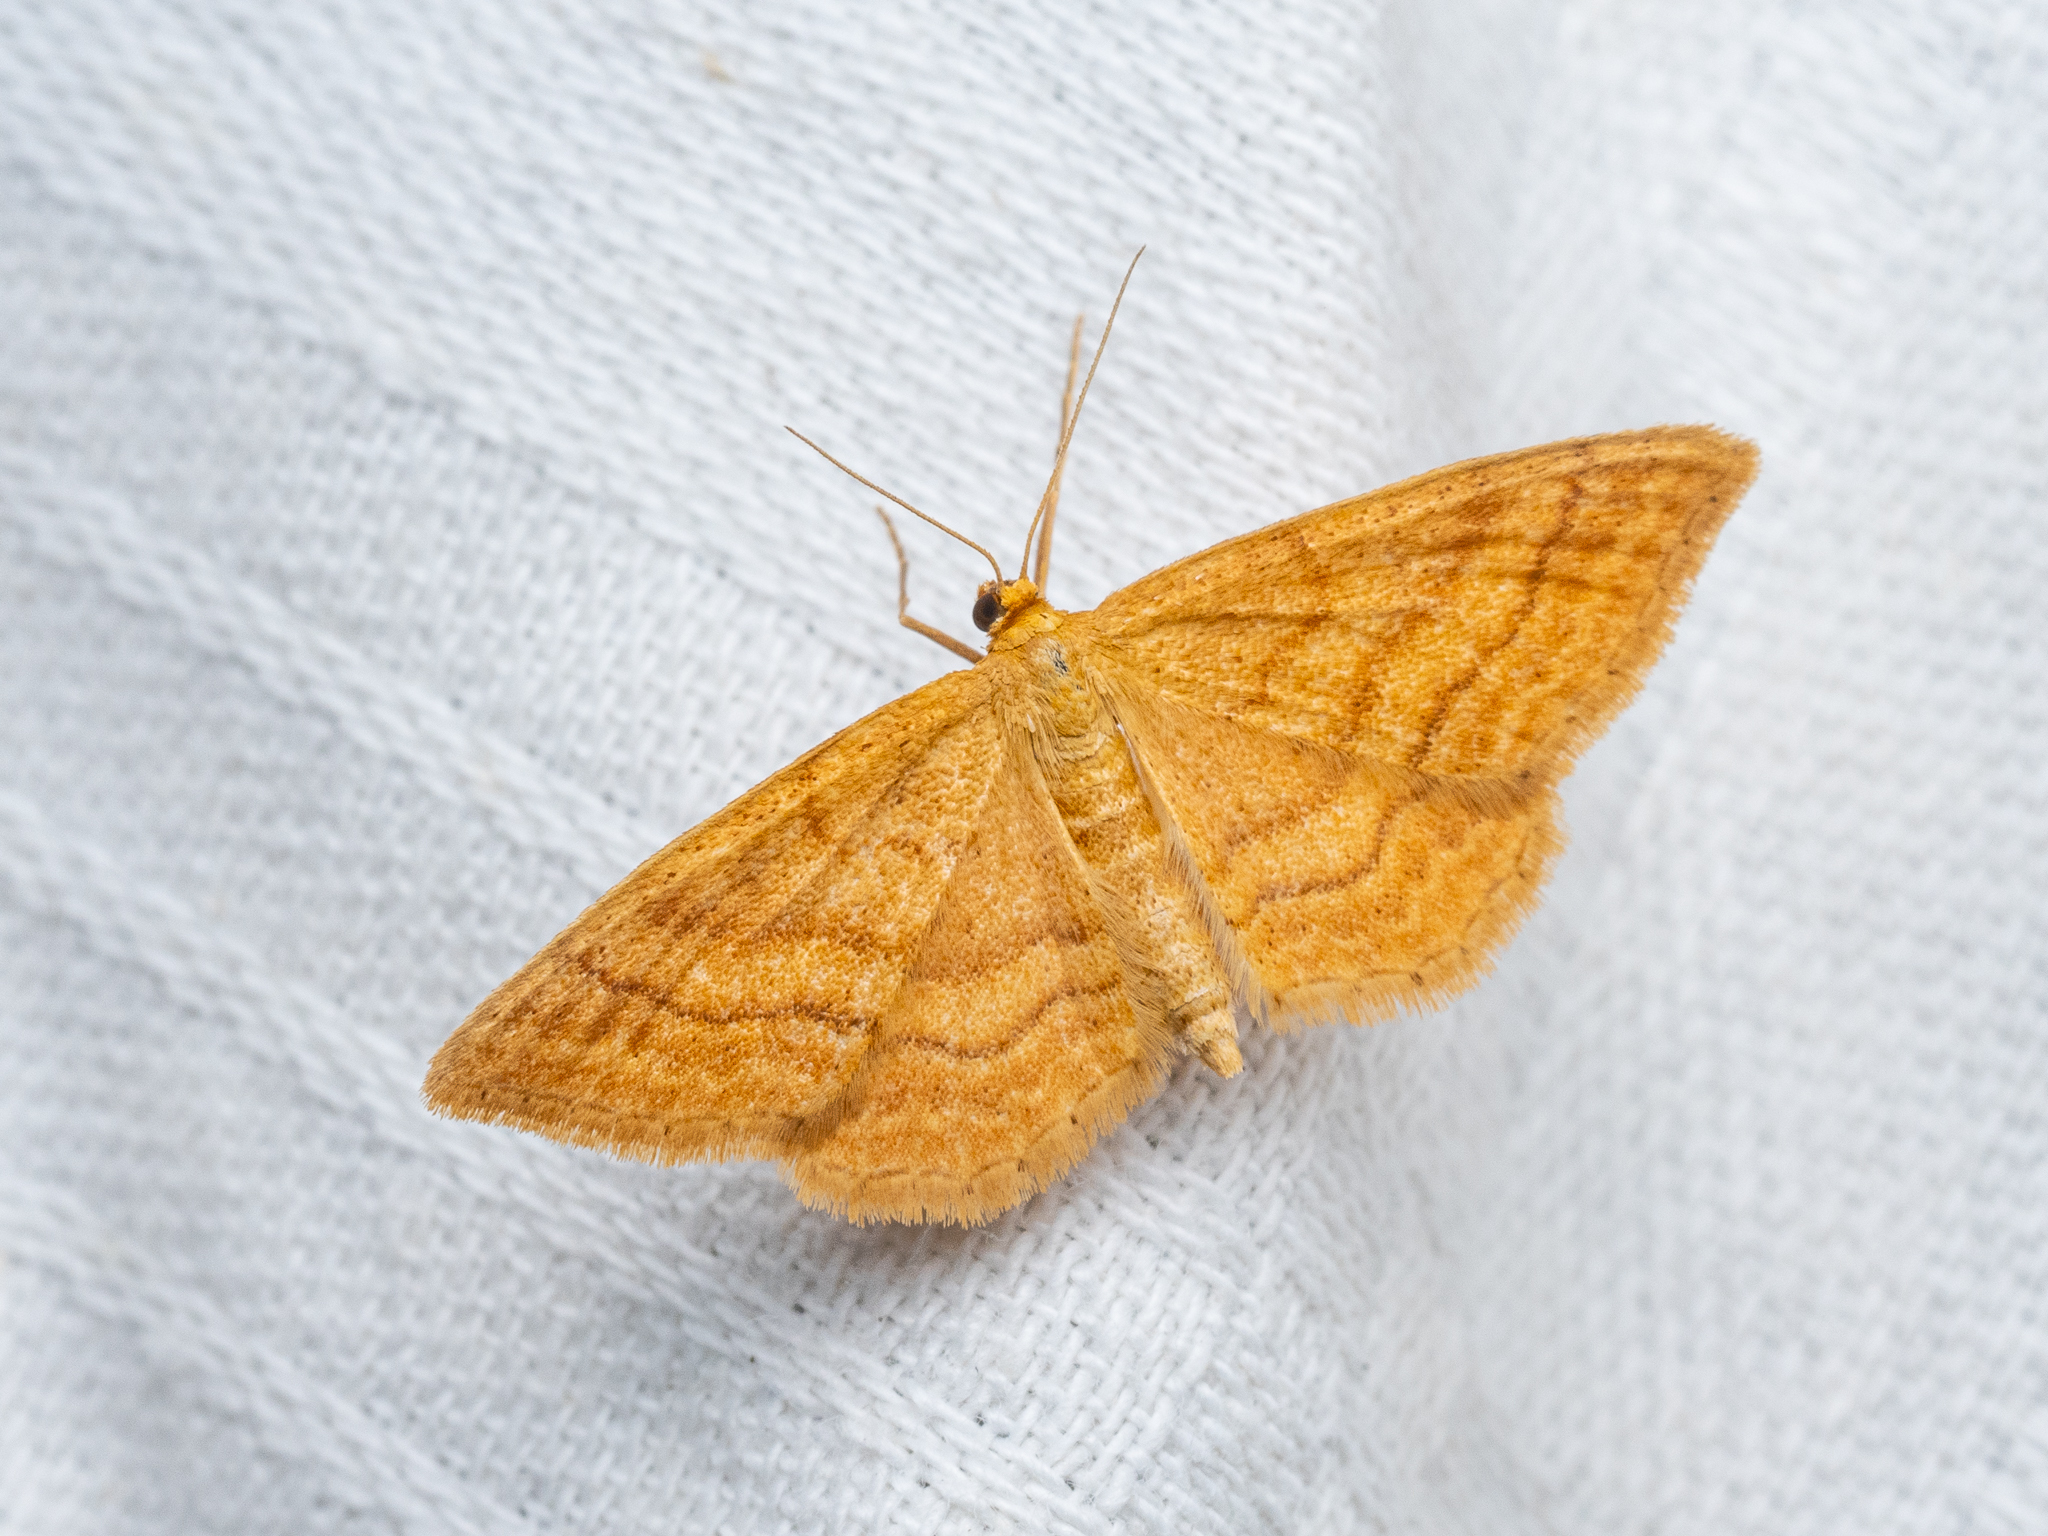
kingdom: Animalia
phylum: Arthropoda
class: Insecta
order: Lepidoptera
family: Geometridae
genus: Idaea
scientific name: Idaea ochrata
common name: Bright wave
